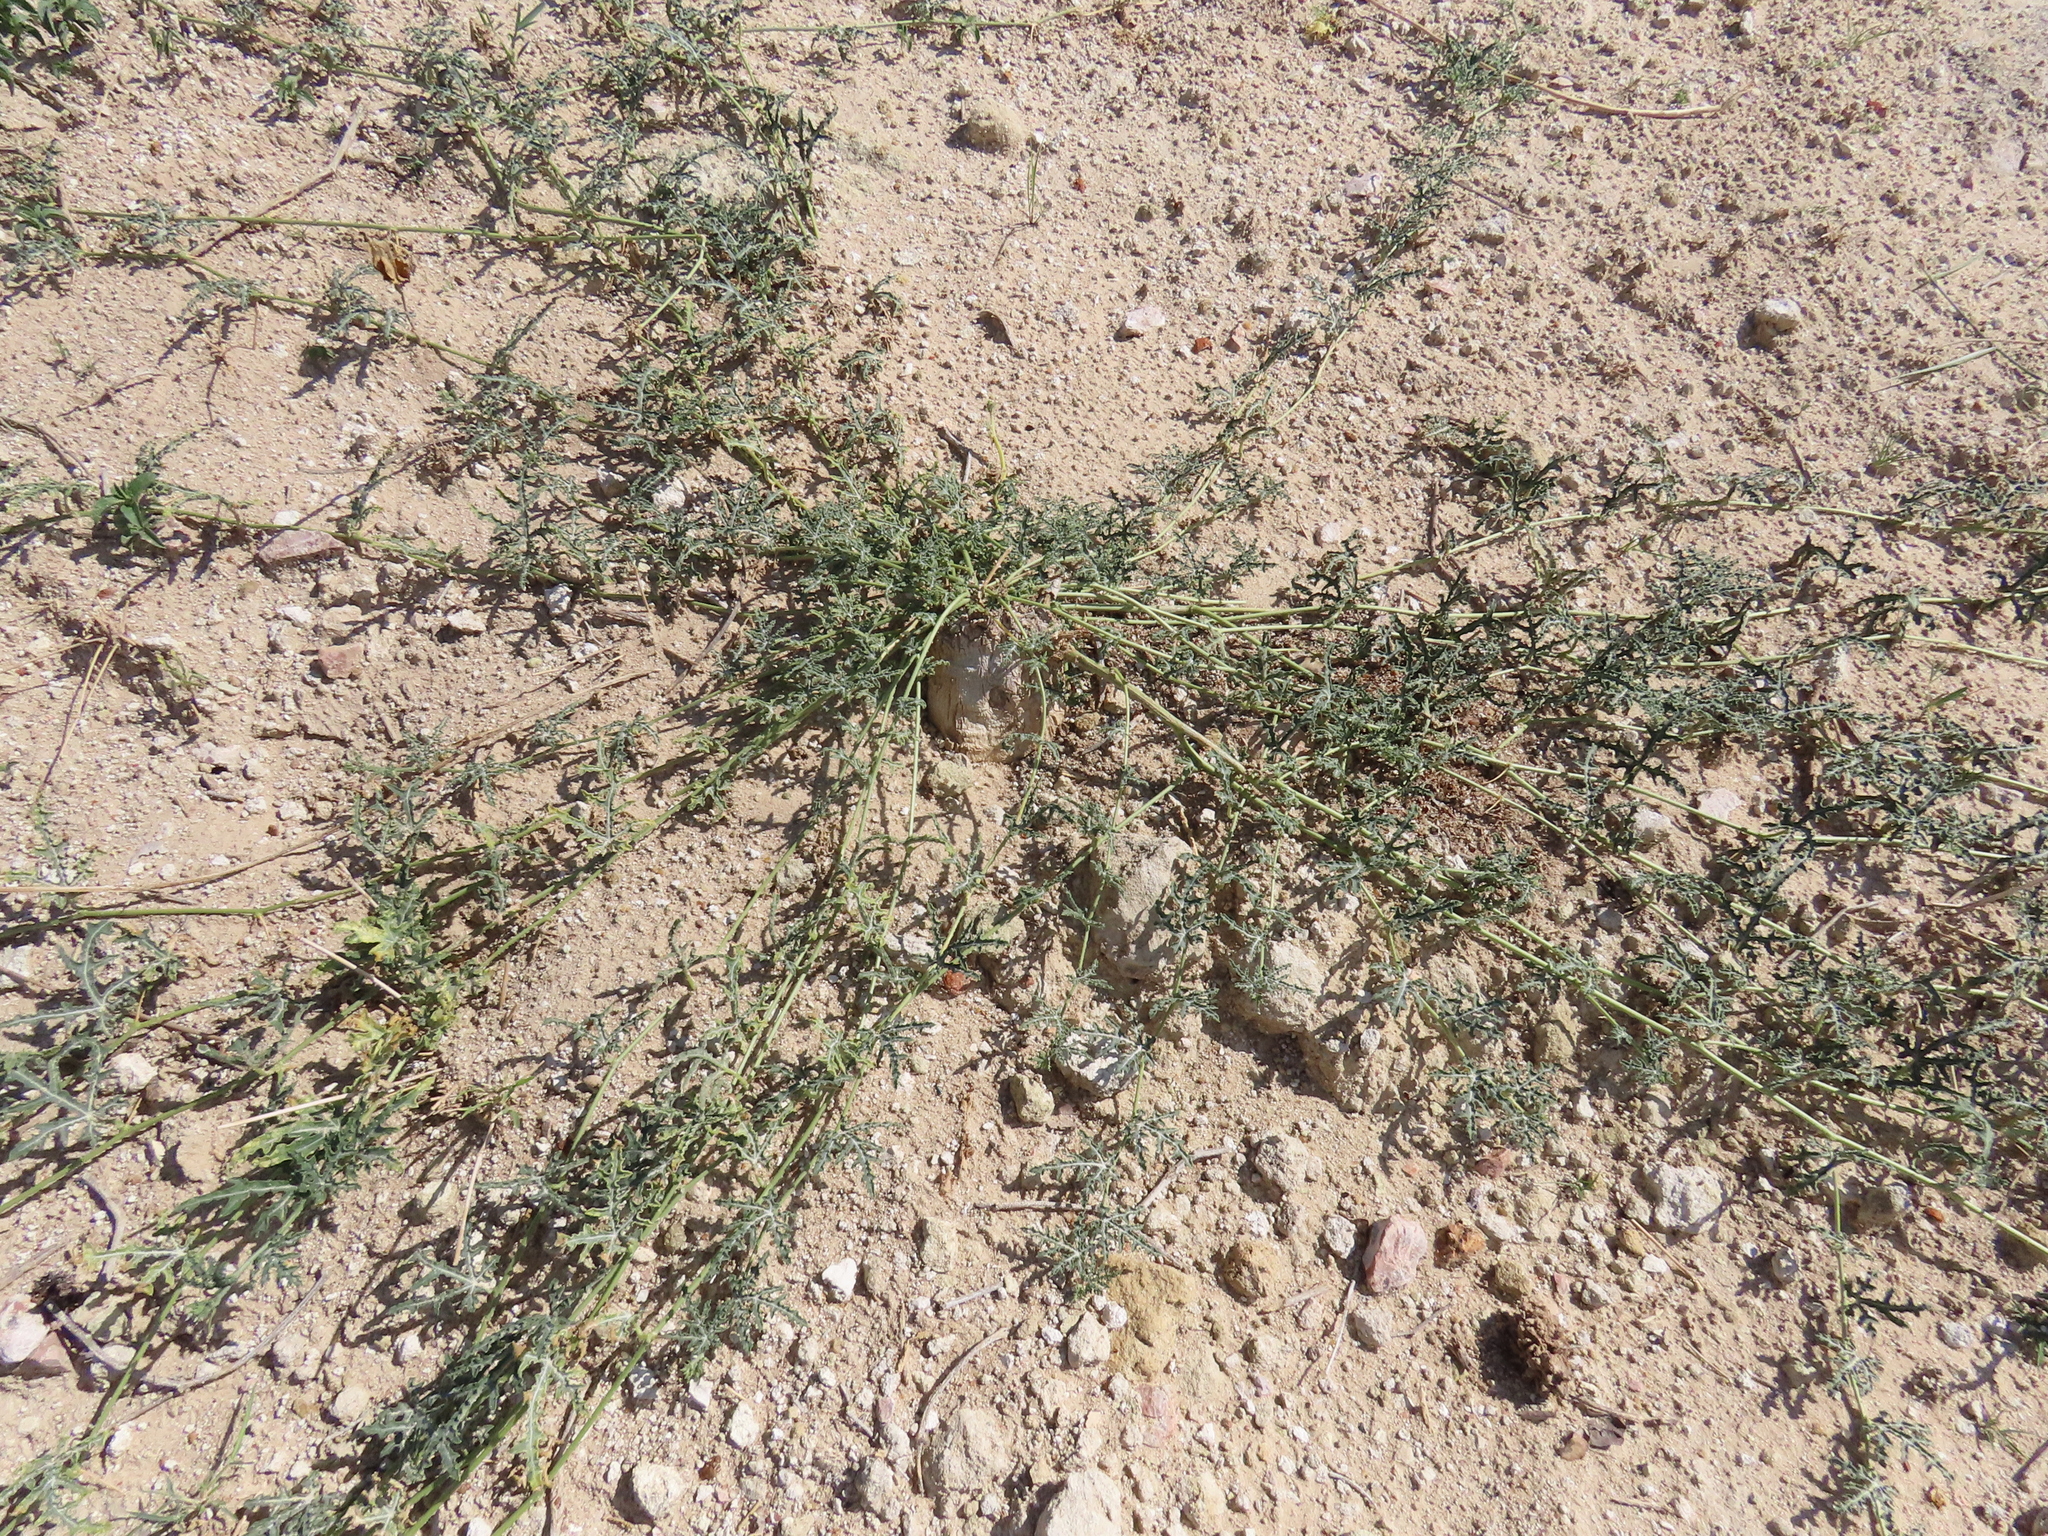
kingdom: Plantae
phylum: Tracheophyta
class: Magnoliopsida
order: Cucurbitales
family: Cucurbitaceae
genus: Citrullus
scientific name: Citrullus naudinianus
